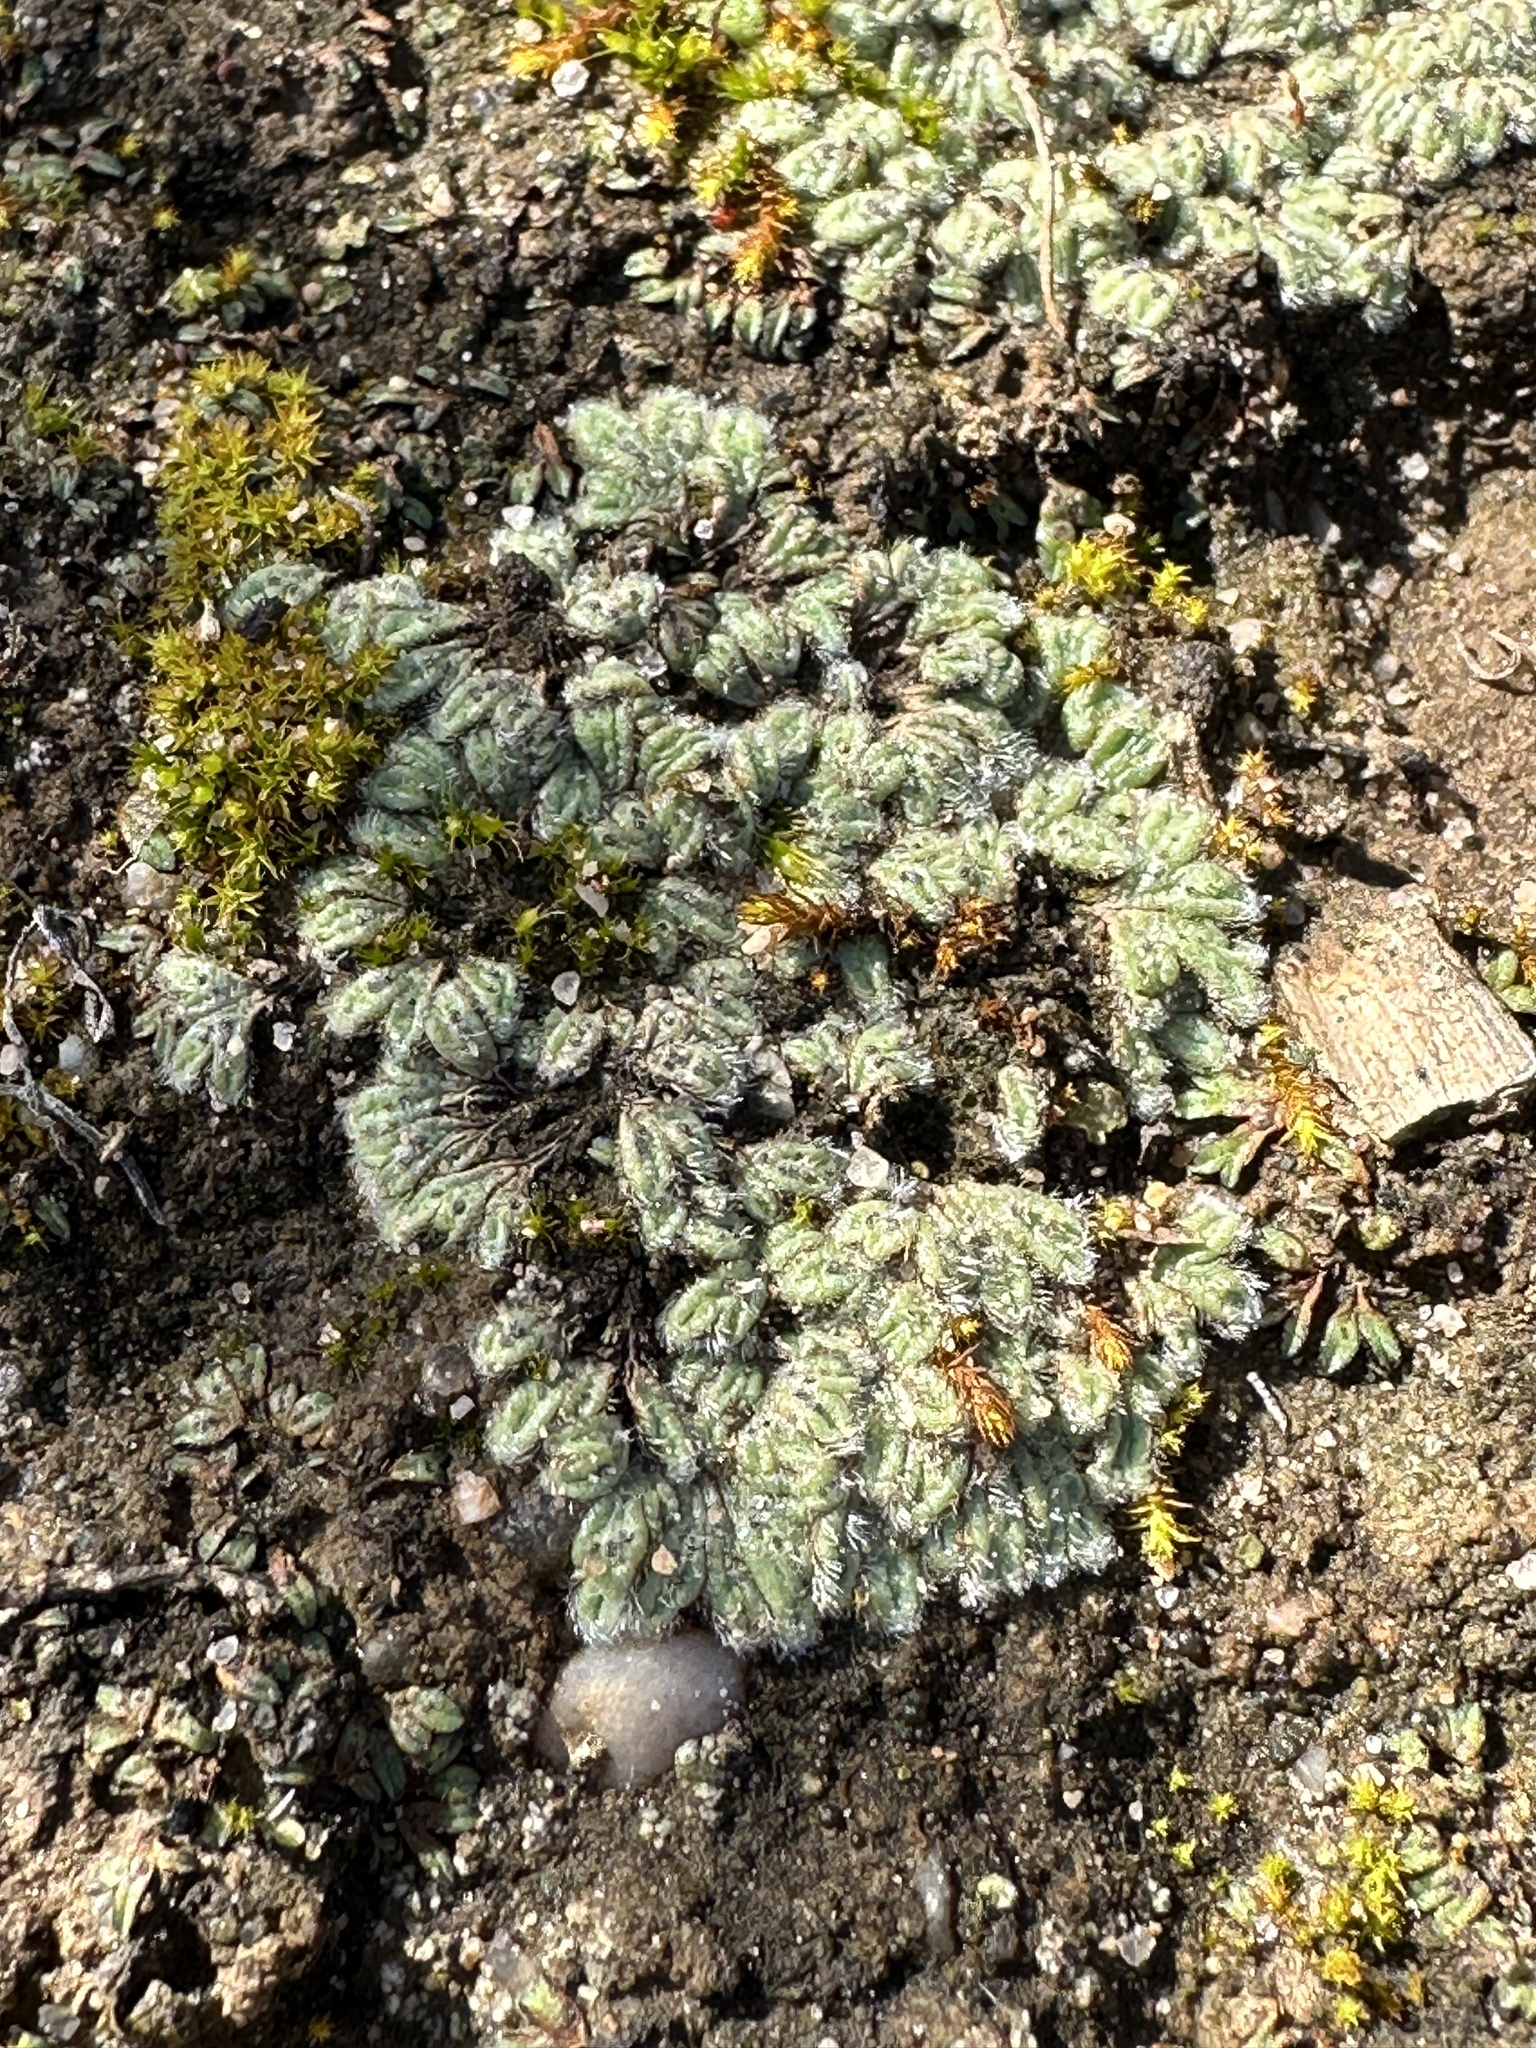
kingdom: Plantae
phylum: Marchantiophyta
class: Marchantiopsida
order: Marchantiales
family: Ricciaceae
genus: Riccia
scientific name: Riccia trichocarpa
